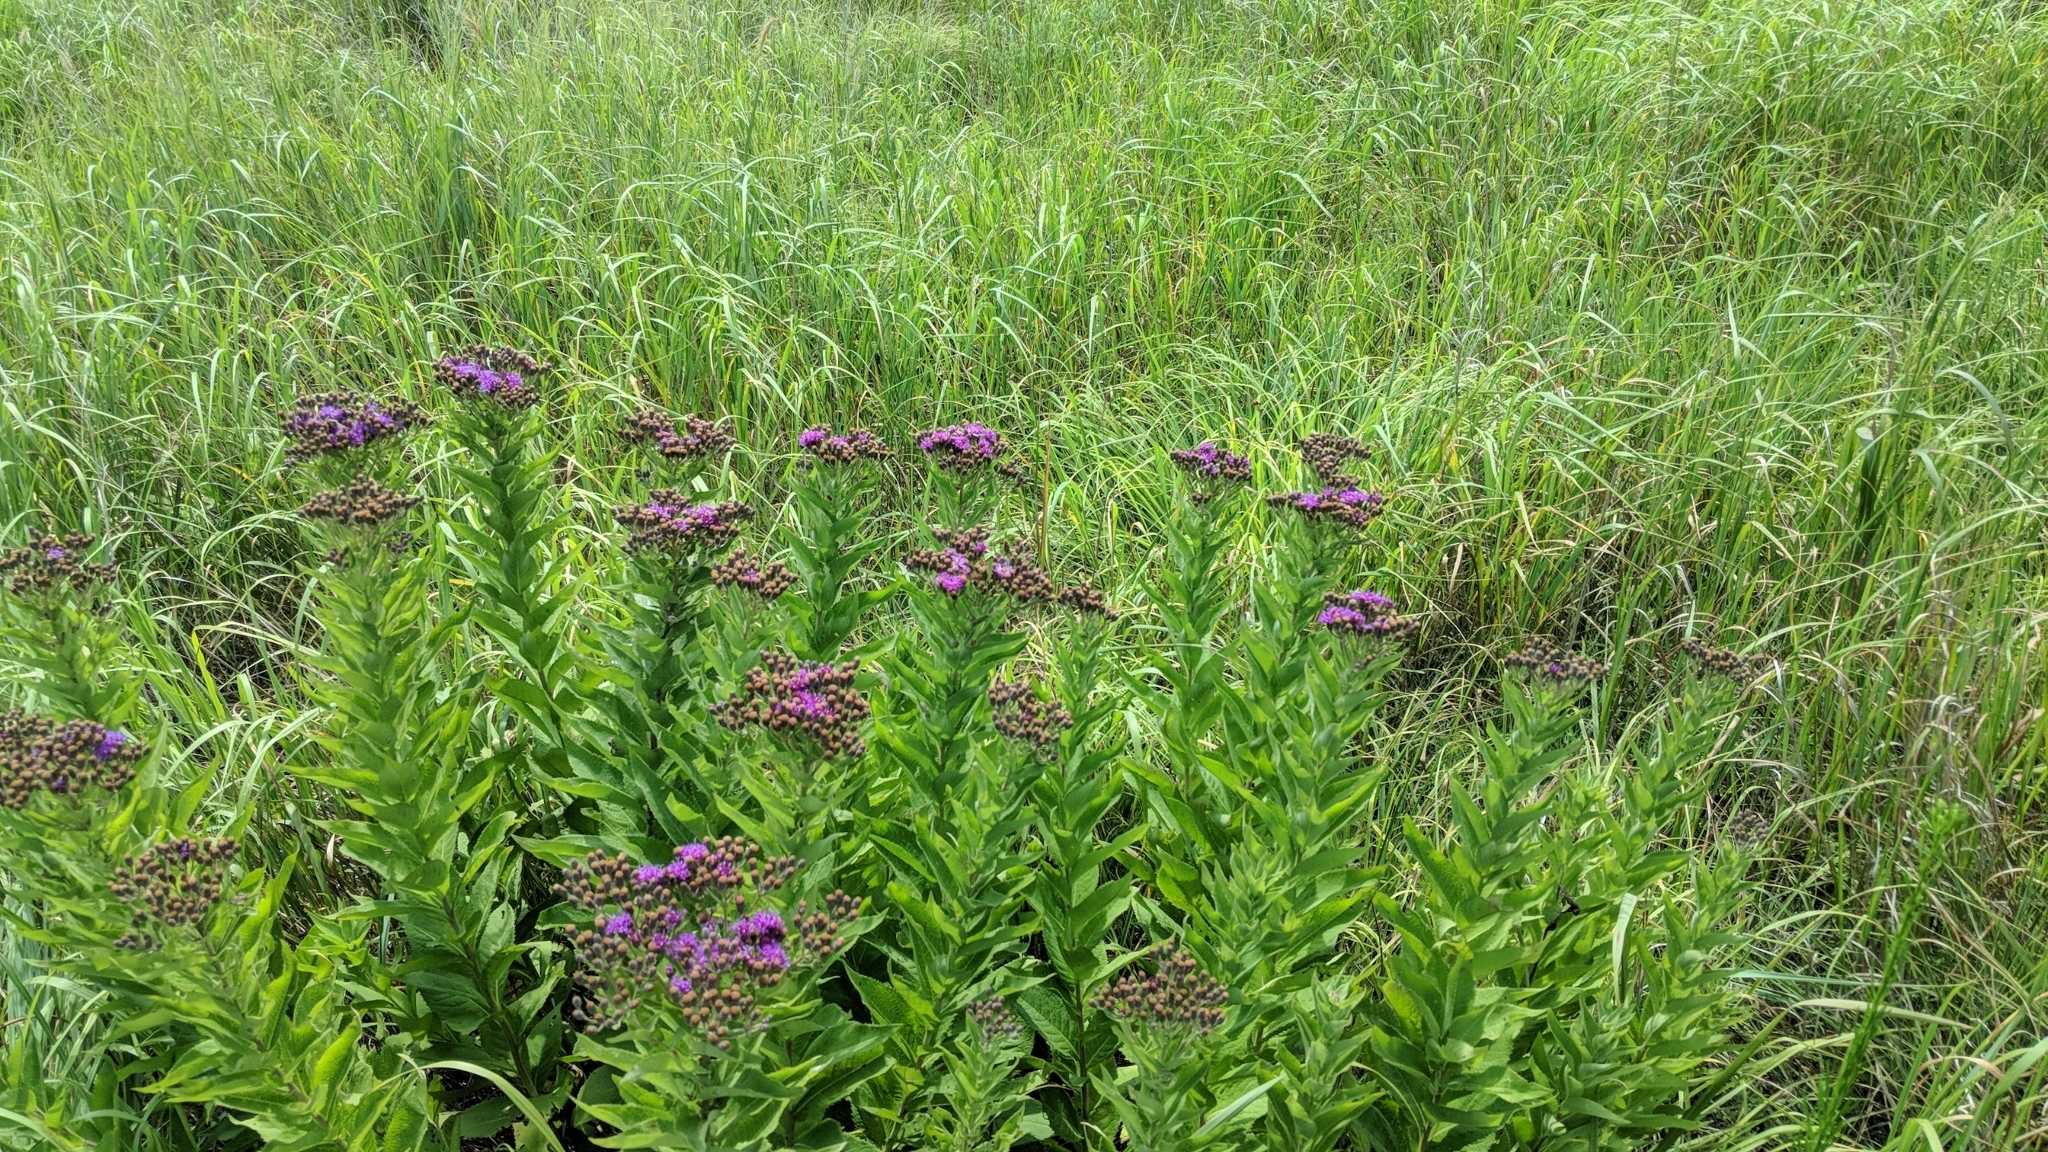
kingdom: Plantae
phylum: Tracheophyta
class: Magnoliopsida
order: Asterales
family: Asteraceae
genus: Vernonia
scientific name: Vernonia baldwinii
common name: Western ironweed
